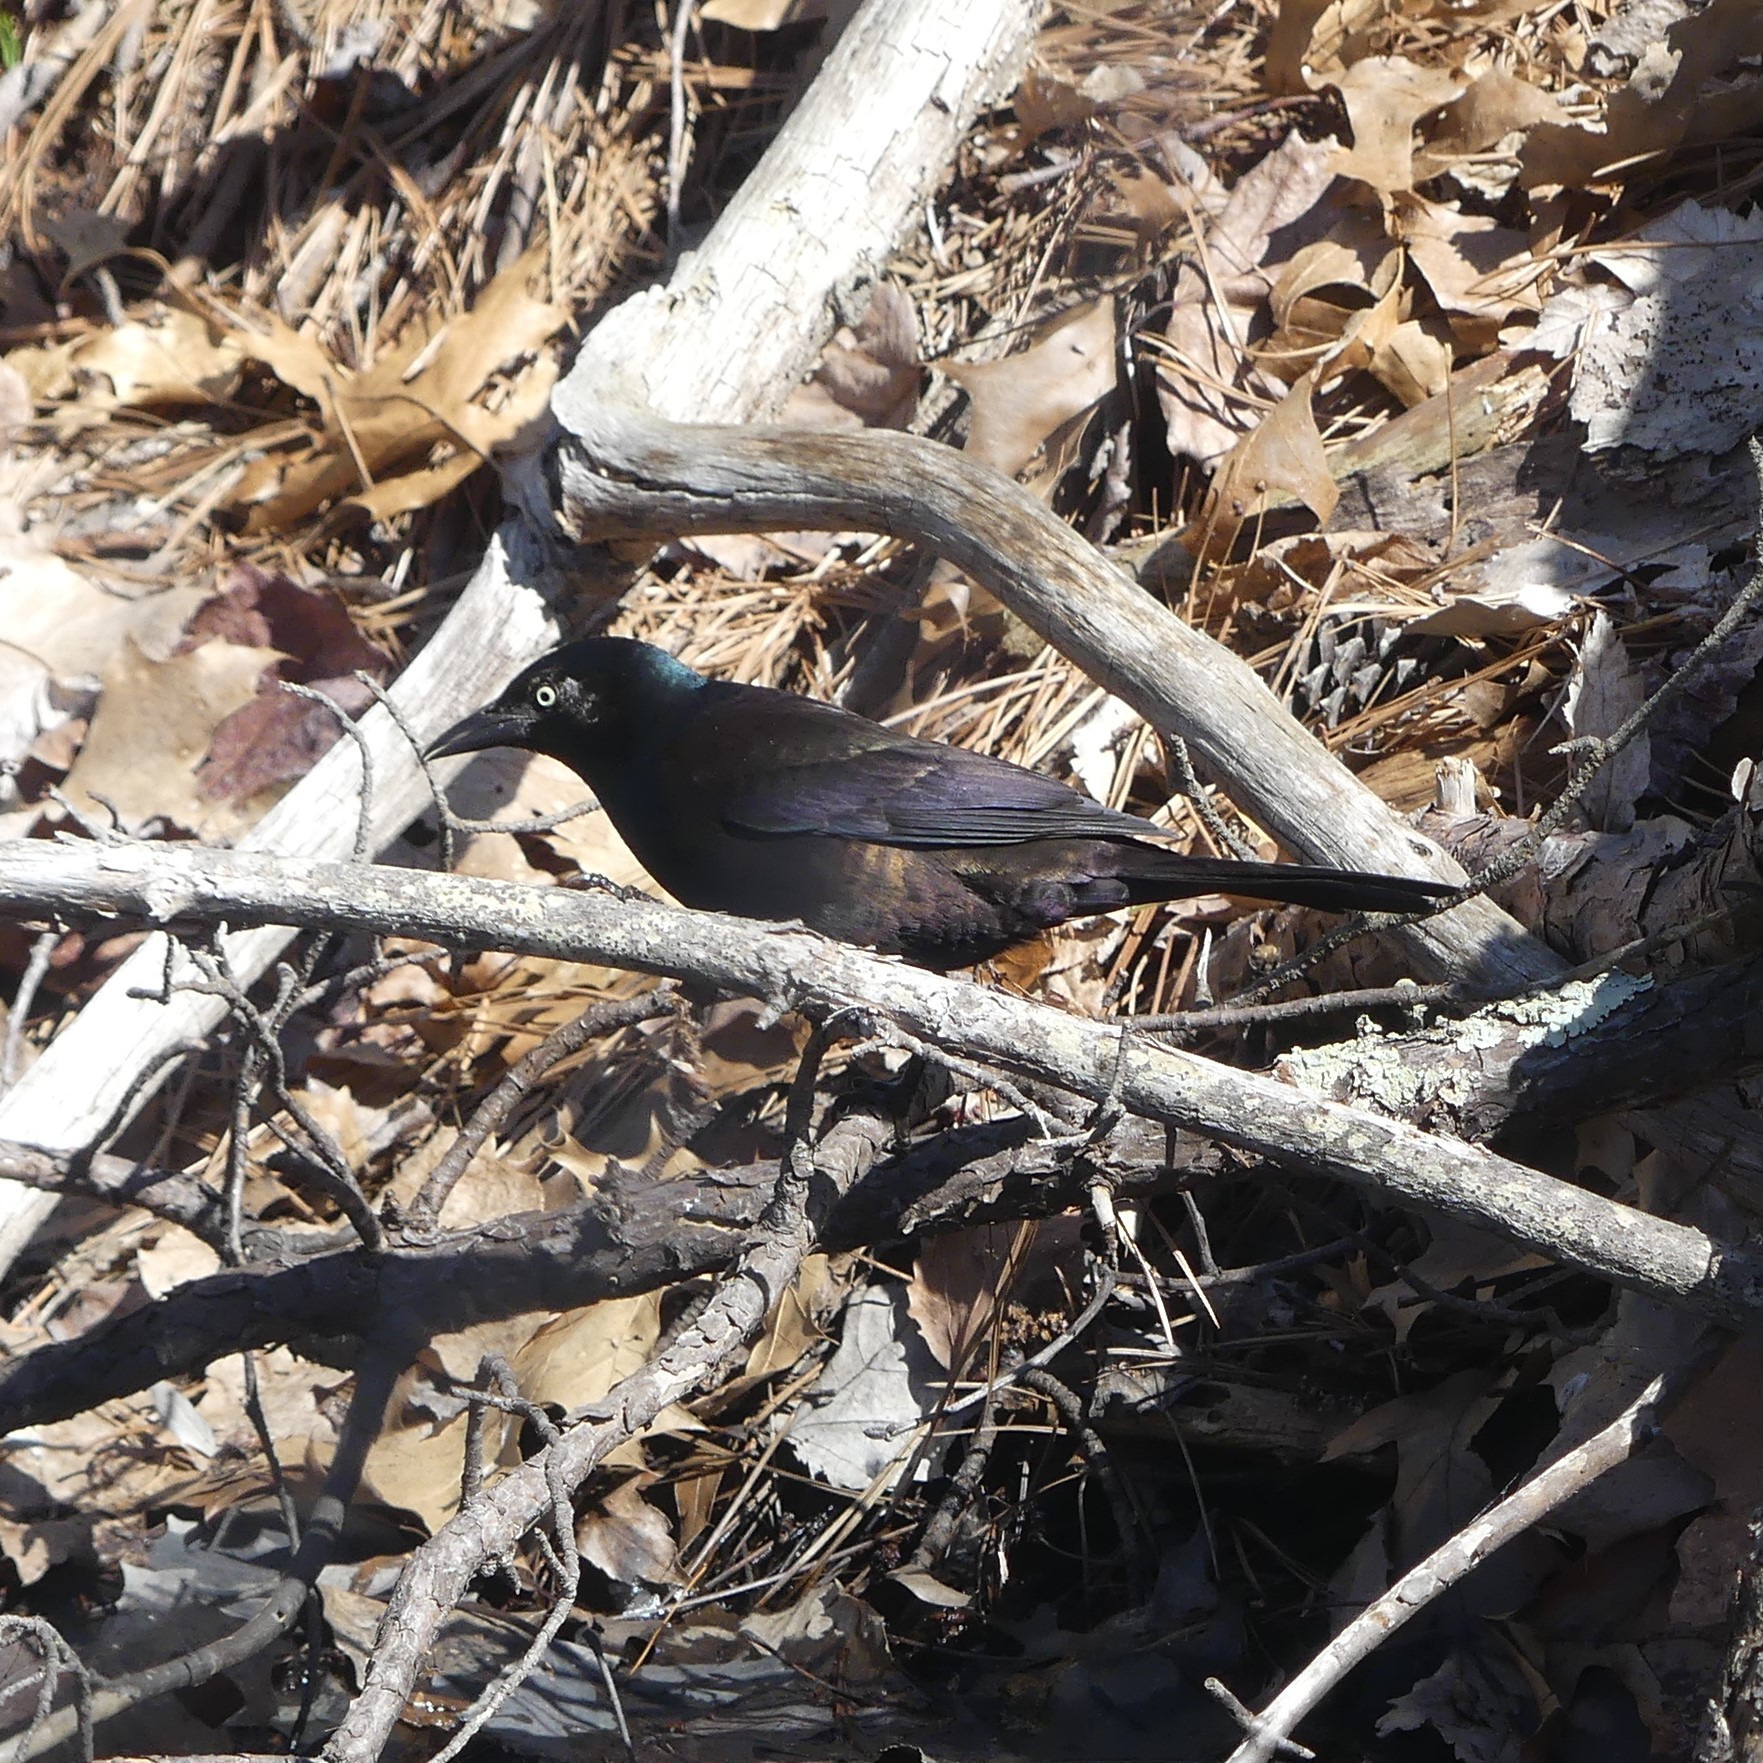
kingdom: Animalia
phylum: Chordata
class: Aves
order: Passeriformes
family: Icteridae
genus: Quiscalus
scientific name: Quiscalus quiscula
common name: Common grackle
